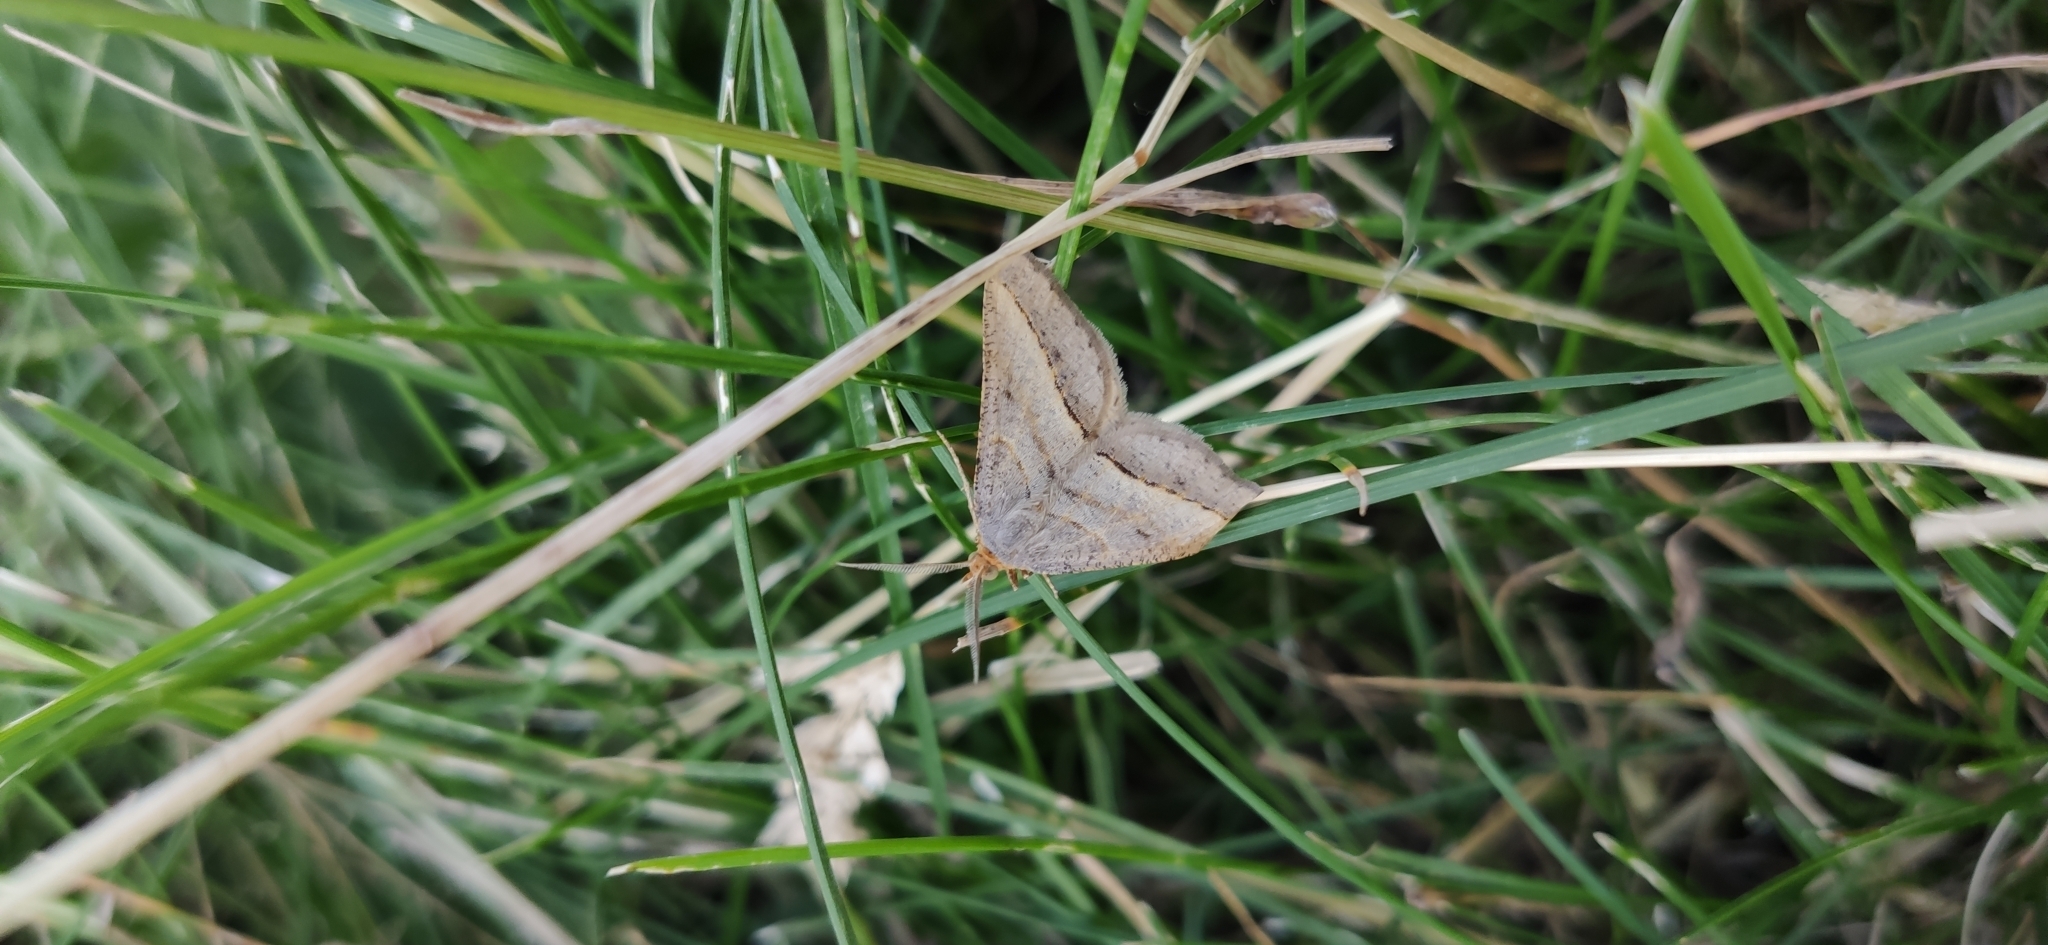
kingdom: Animalia
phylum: Arthropoda
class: Insecta
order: Lepidoptera
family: Geometridae
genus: Tephrina
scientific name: Tephrina arenacearia
